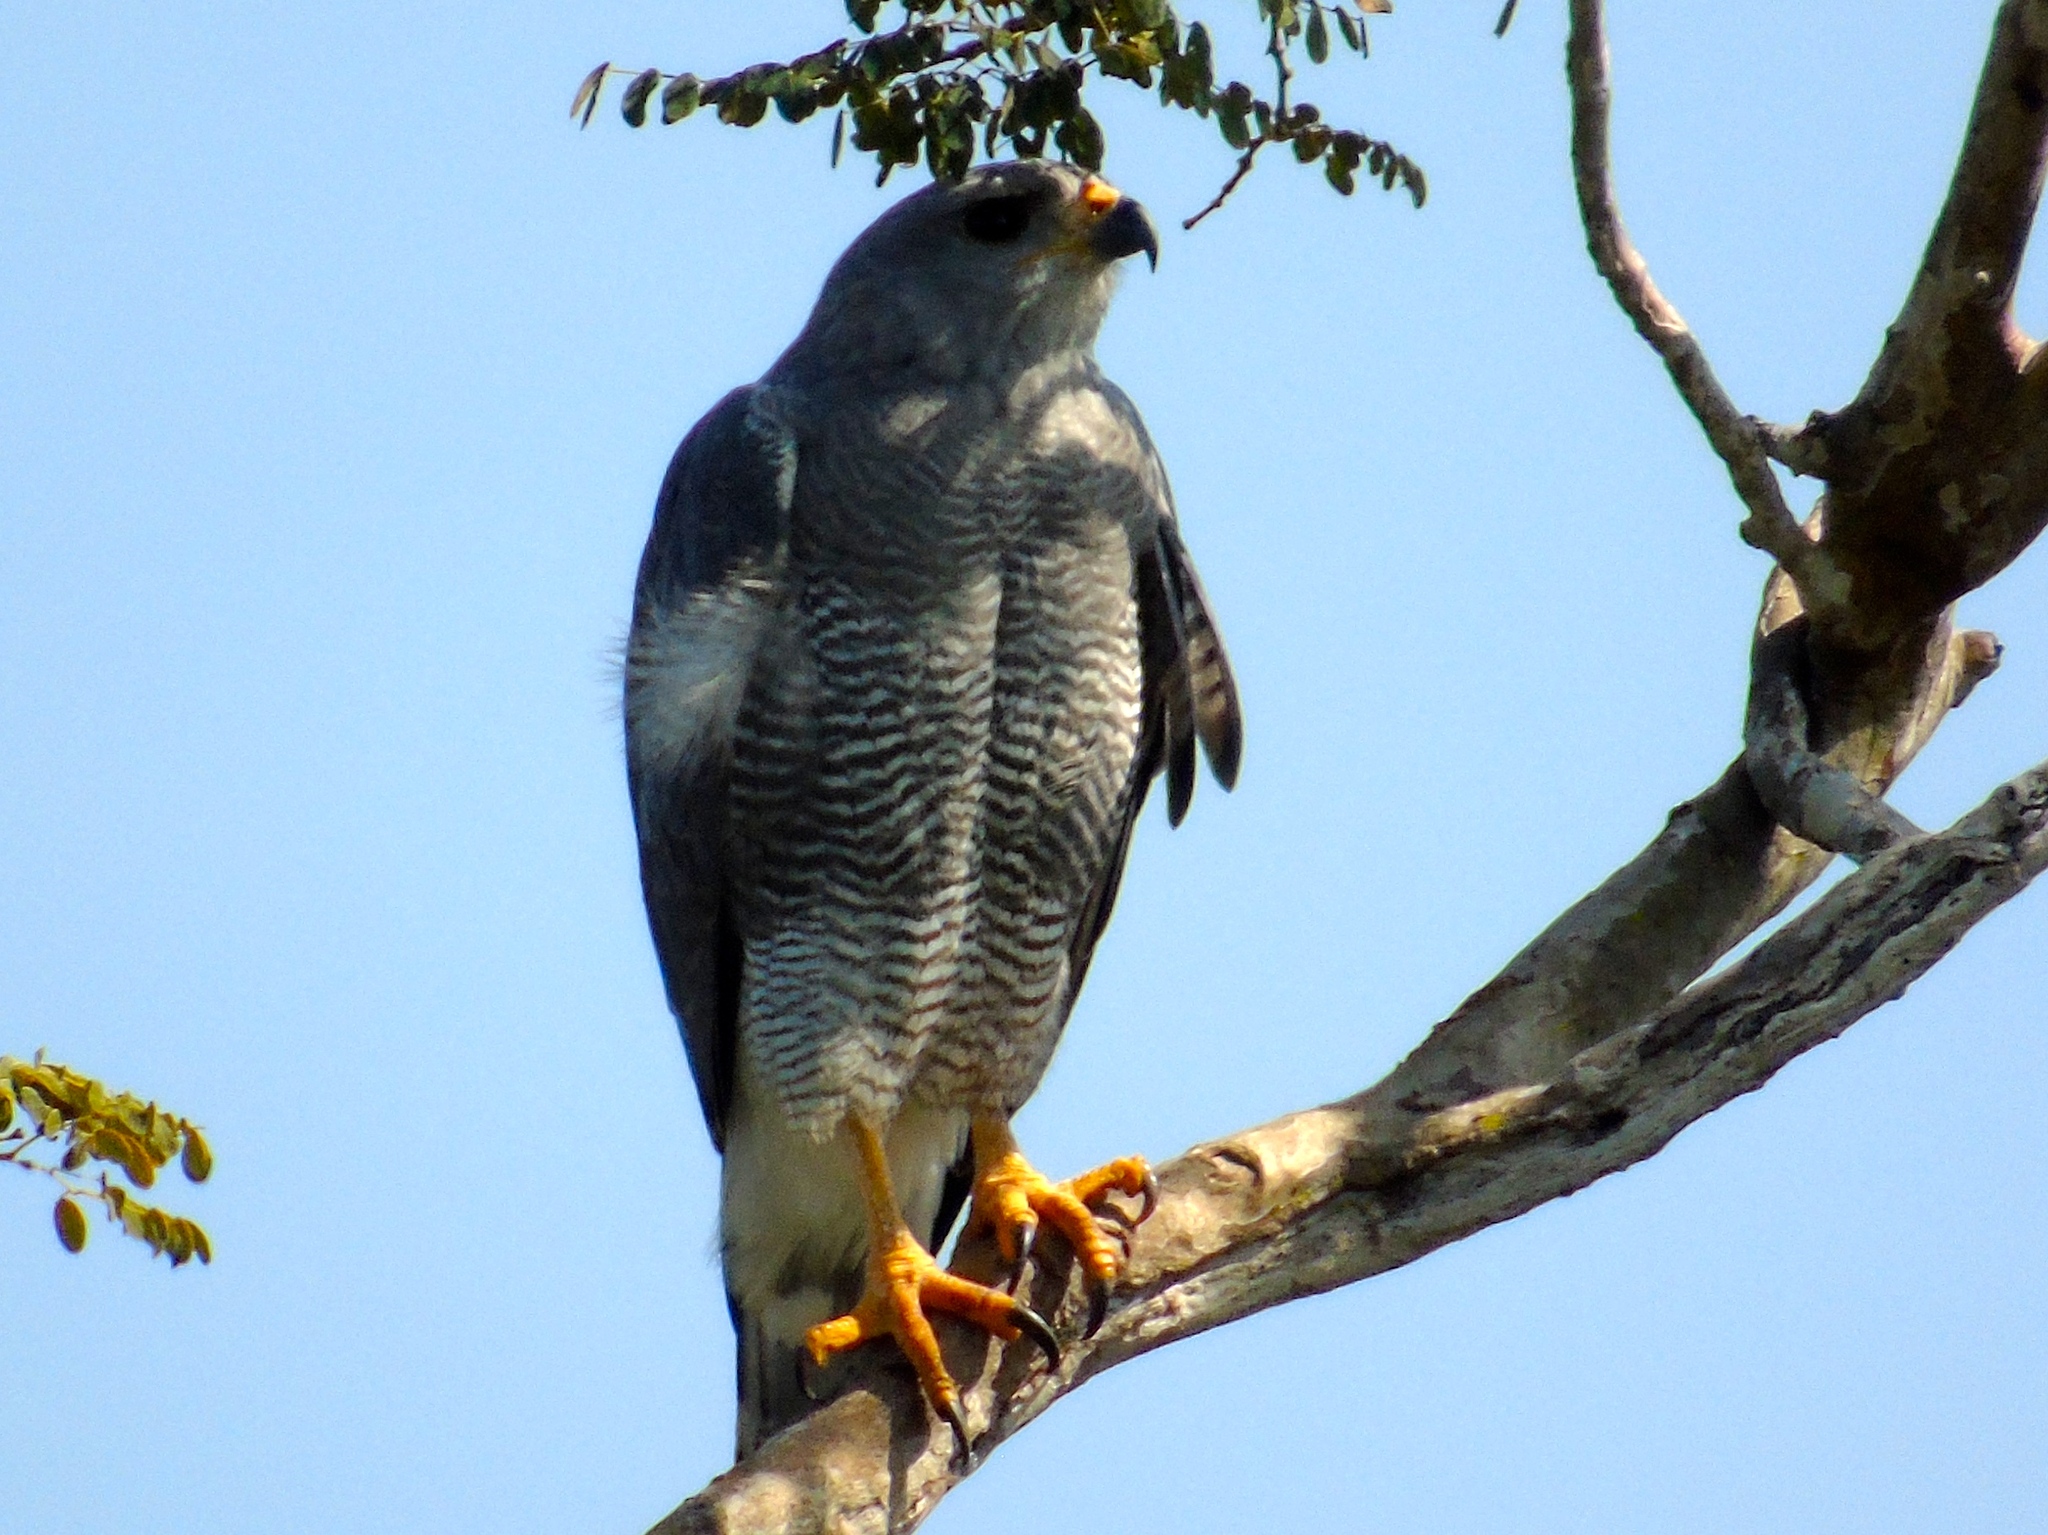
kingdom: Animalia
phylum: Chordata
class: Aves
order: Accipitriformes
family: Accipitridae
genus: Buteo
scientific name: Buteo nitidus
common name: Grey-lined hawk
